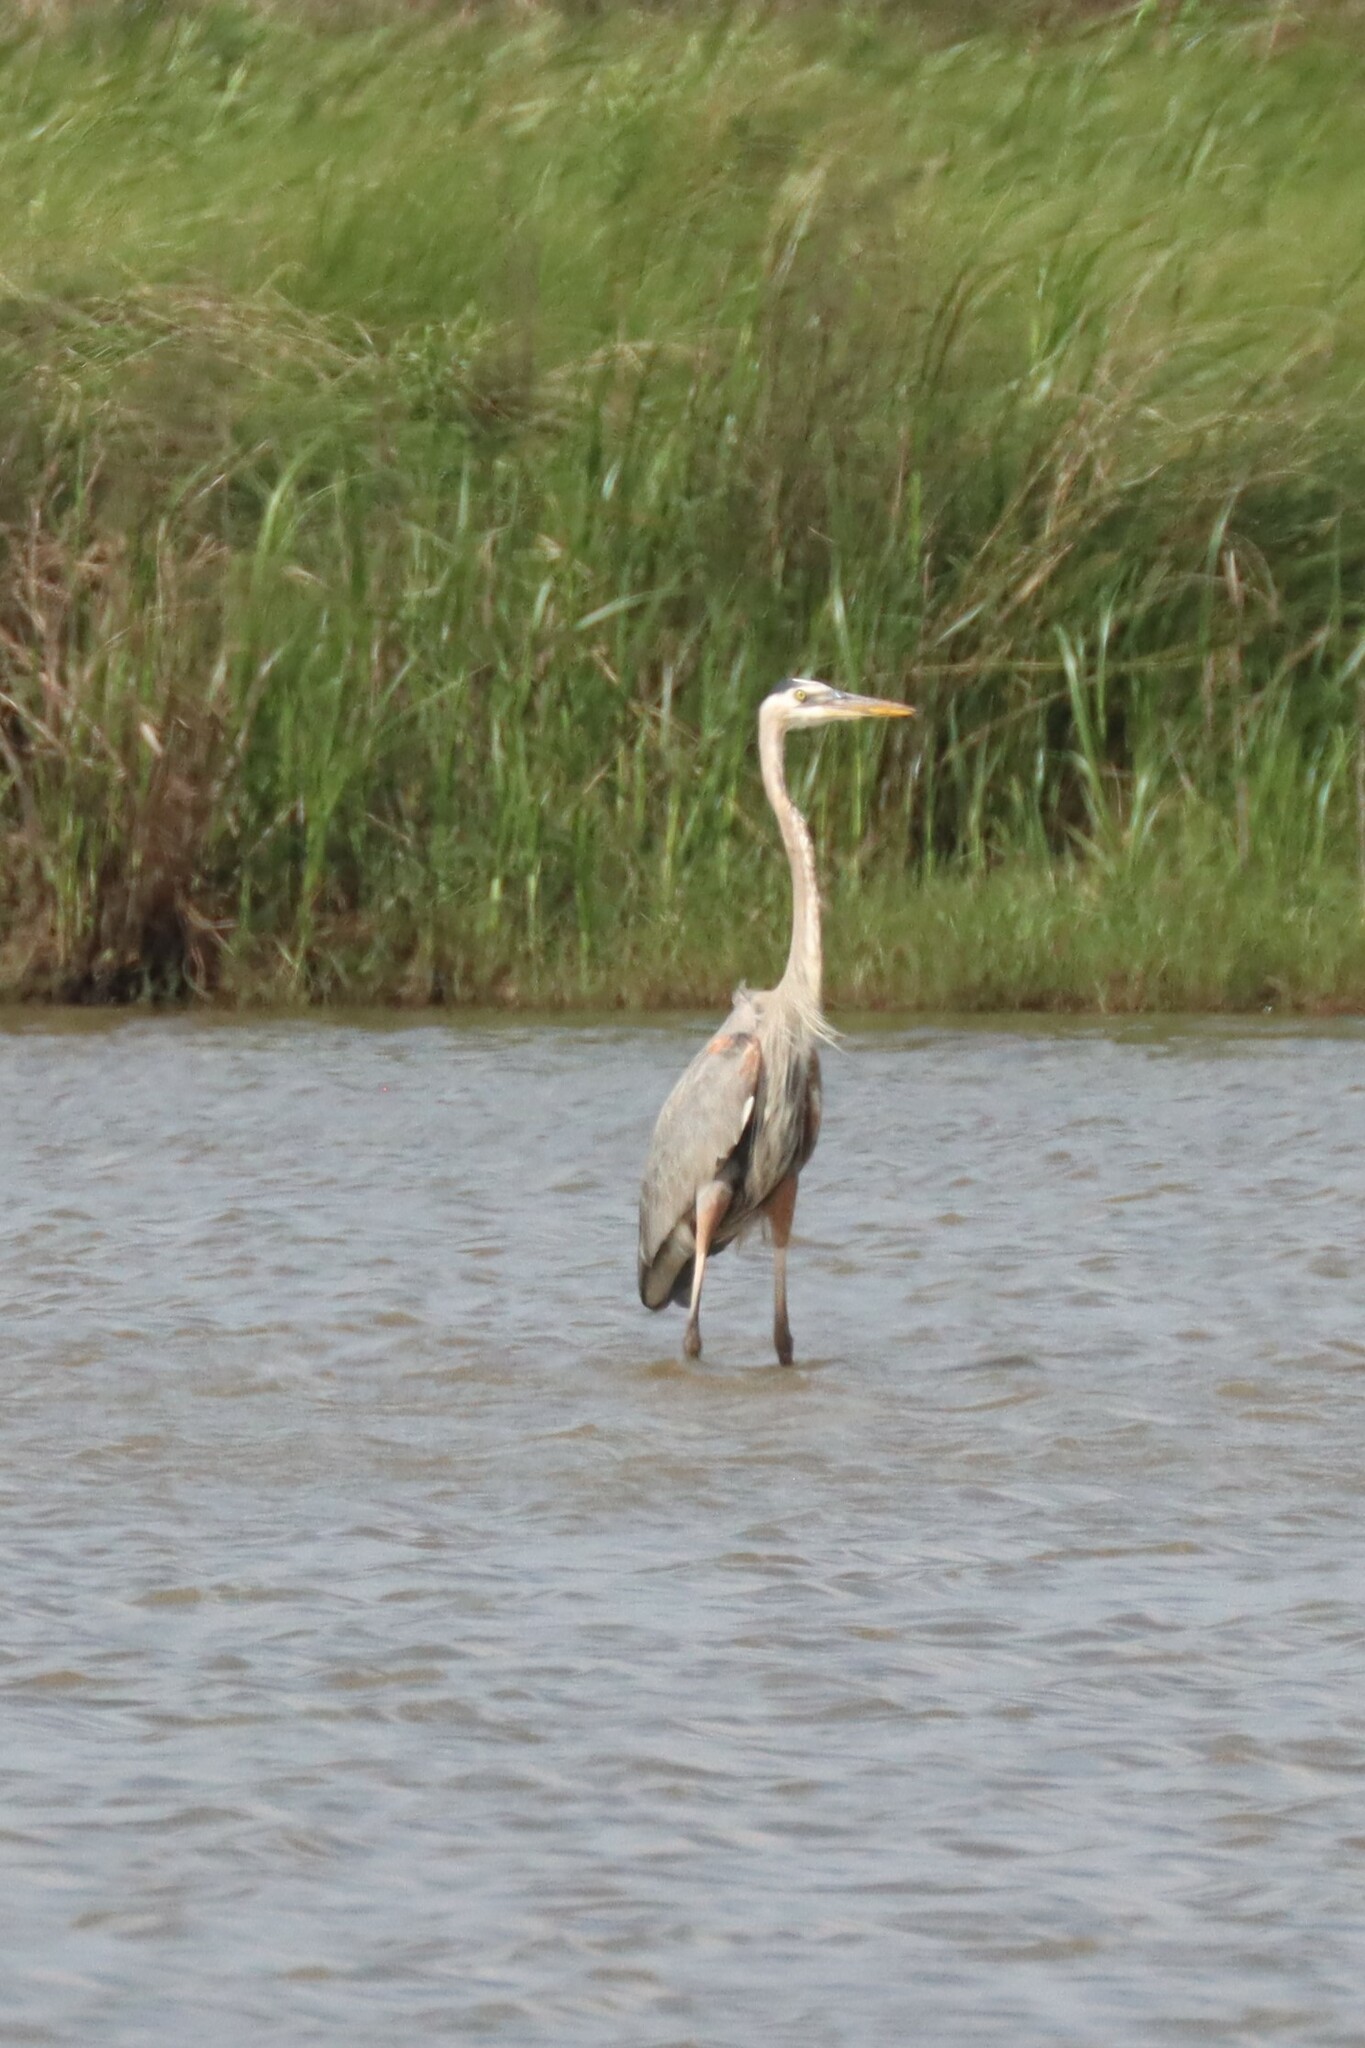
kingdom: Animalia
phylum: Chordata
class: Aves
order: Pelecaniformes
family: Ardeidae
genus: Ardea
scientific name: Ardea herodias
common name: Great blue heron
